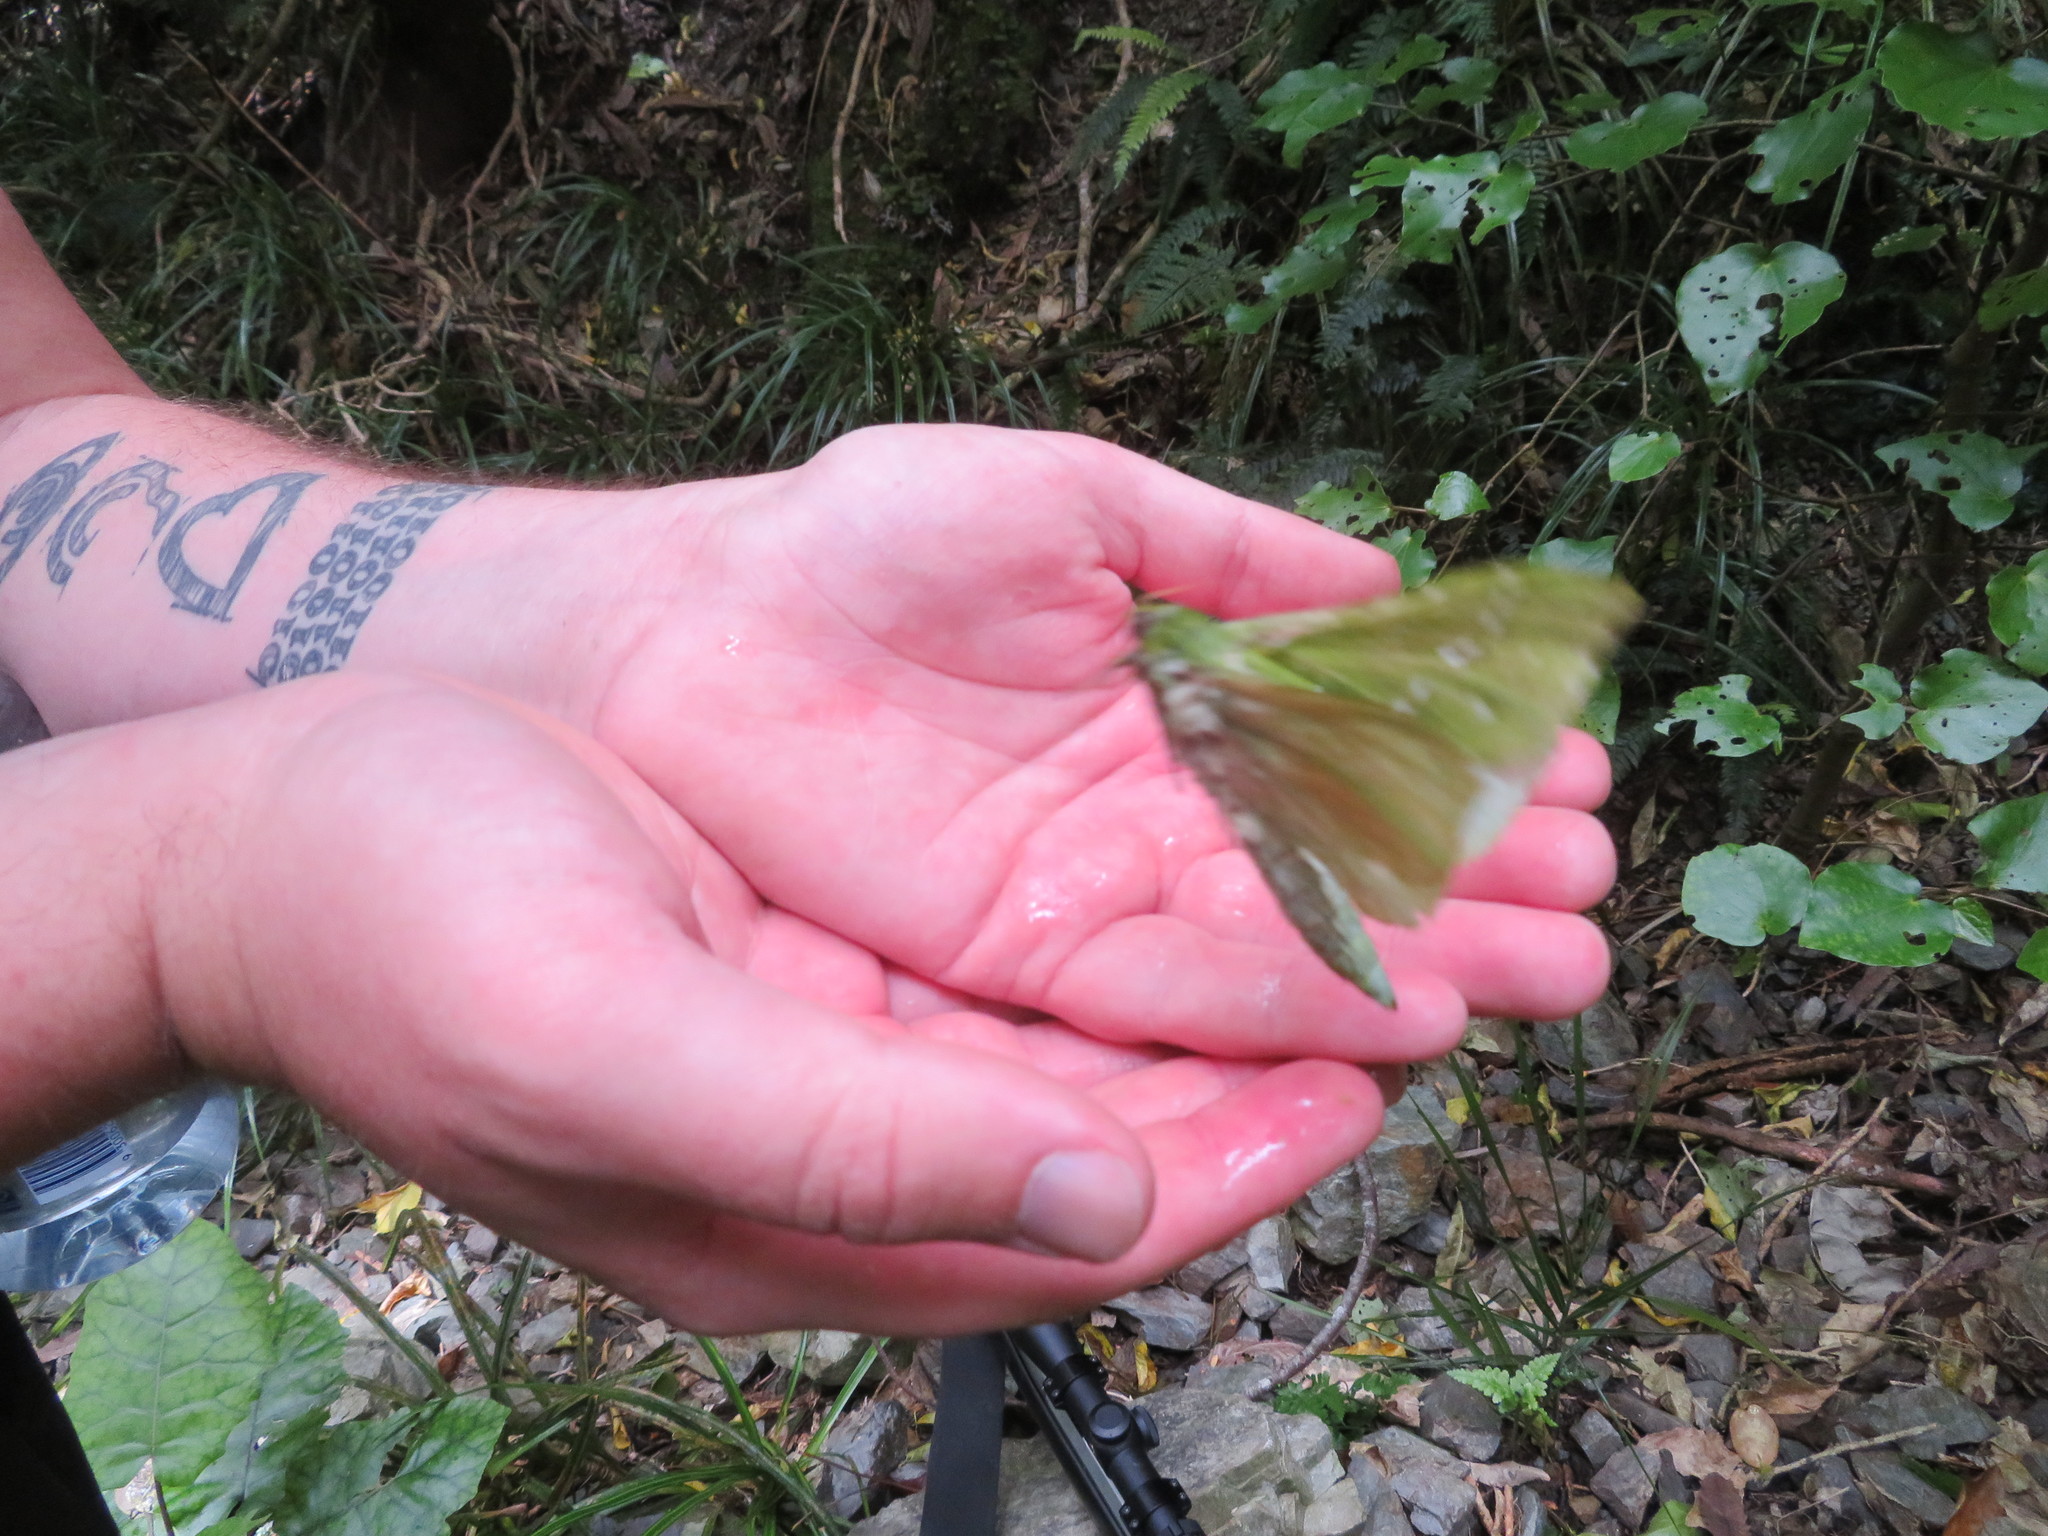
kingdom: Animalia
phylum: Arthropoda
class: Insecta
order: Lepidoptera
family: Hepialidae
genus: Aenetus
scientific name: Aenetus virescens
